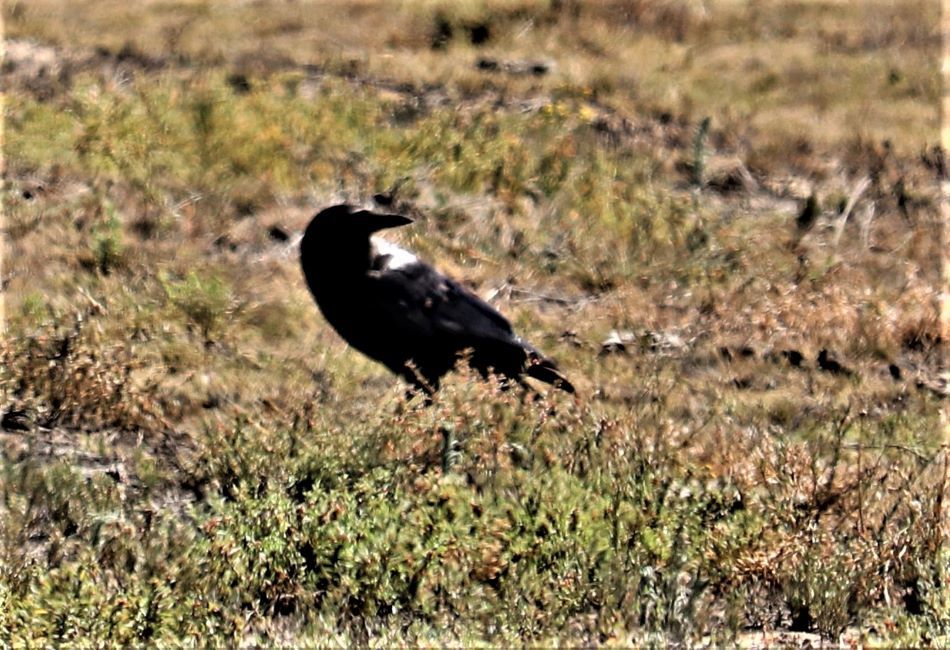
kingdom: Animalia
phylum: Chordata
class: Aves
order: Passeriformes
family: Corvidae
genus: Corvus
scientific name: Corvus capensis
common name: Cape crow
